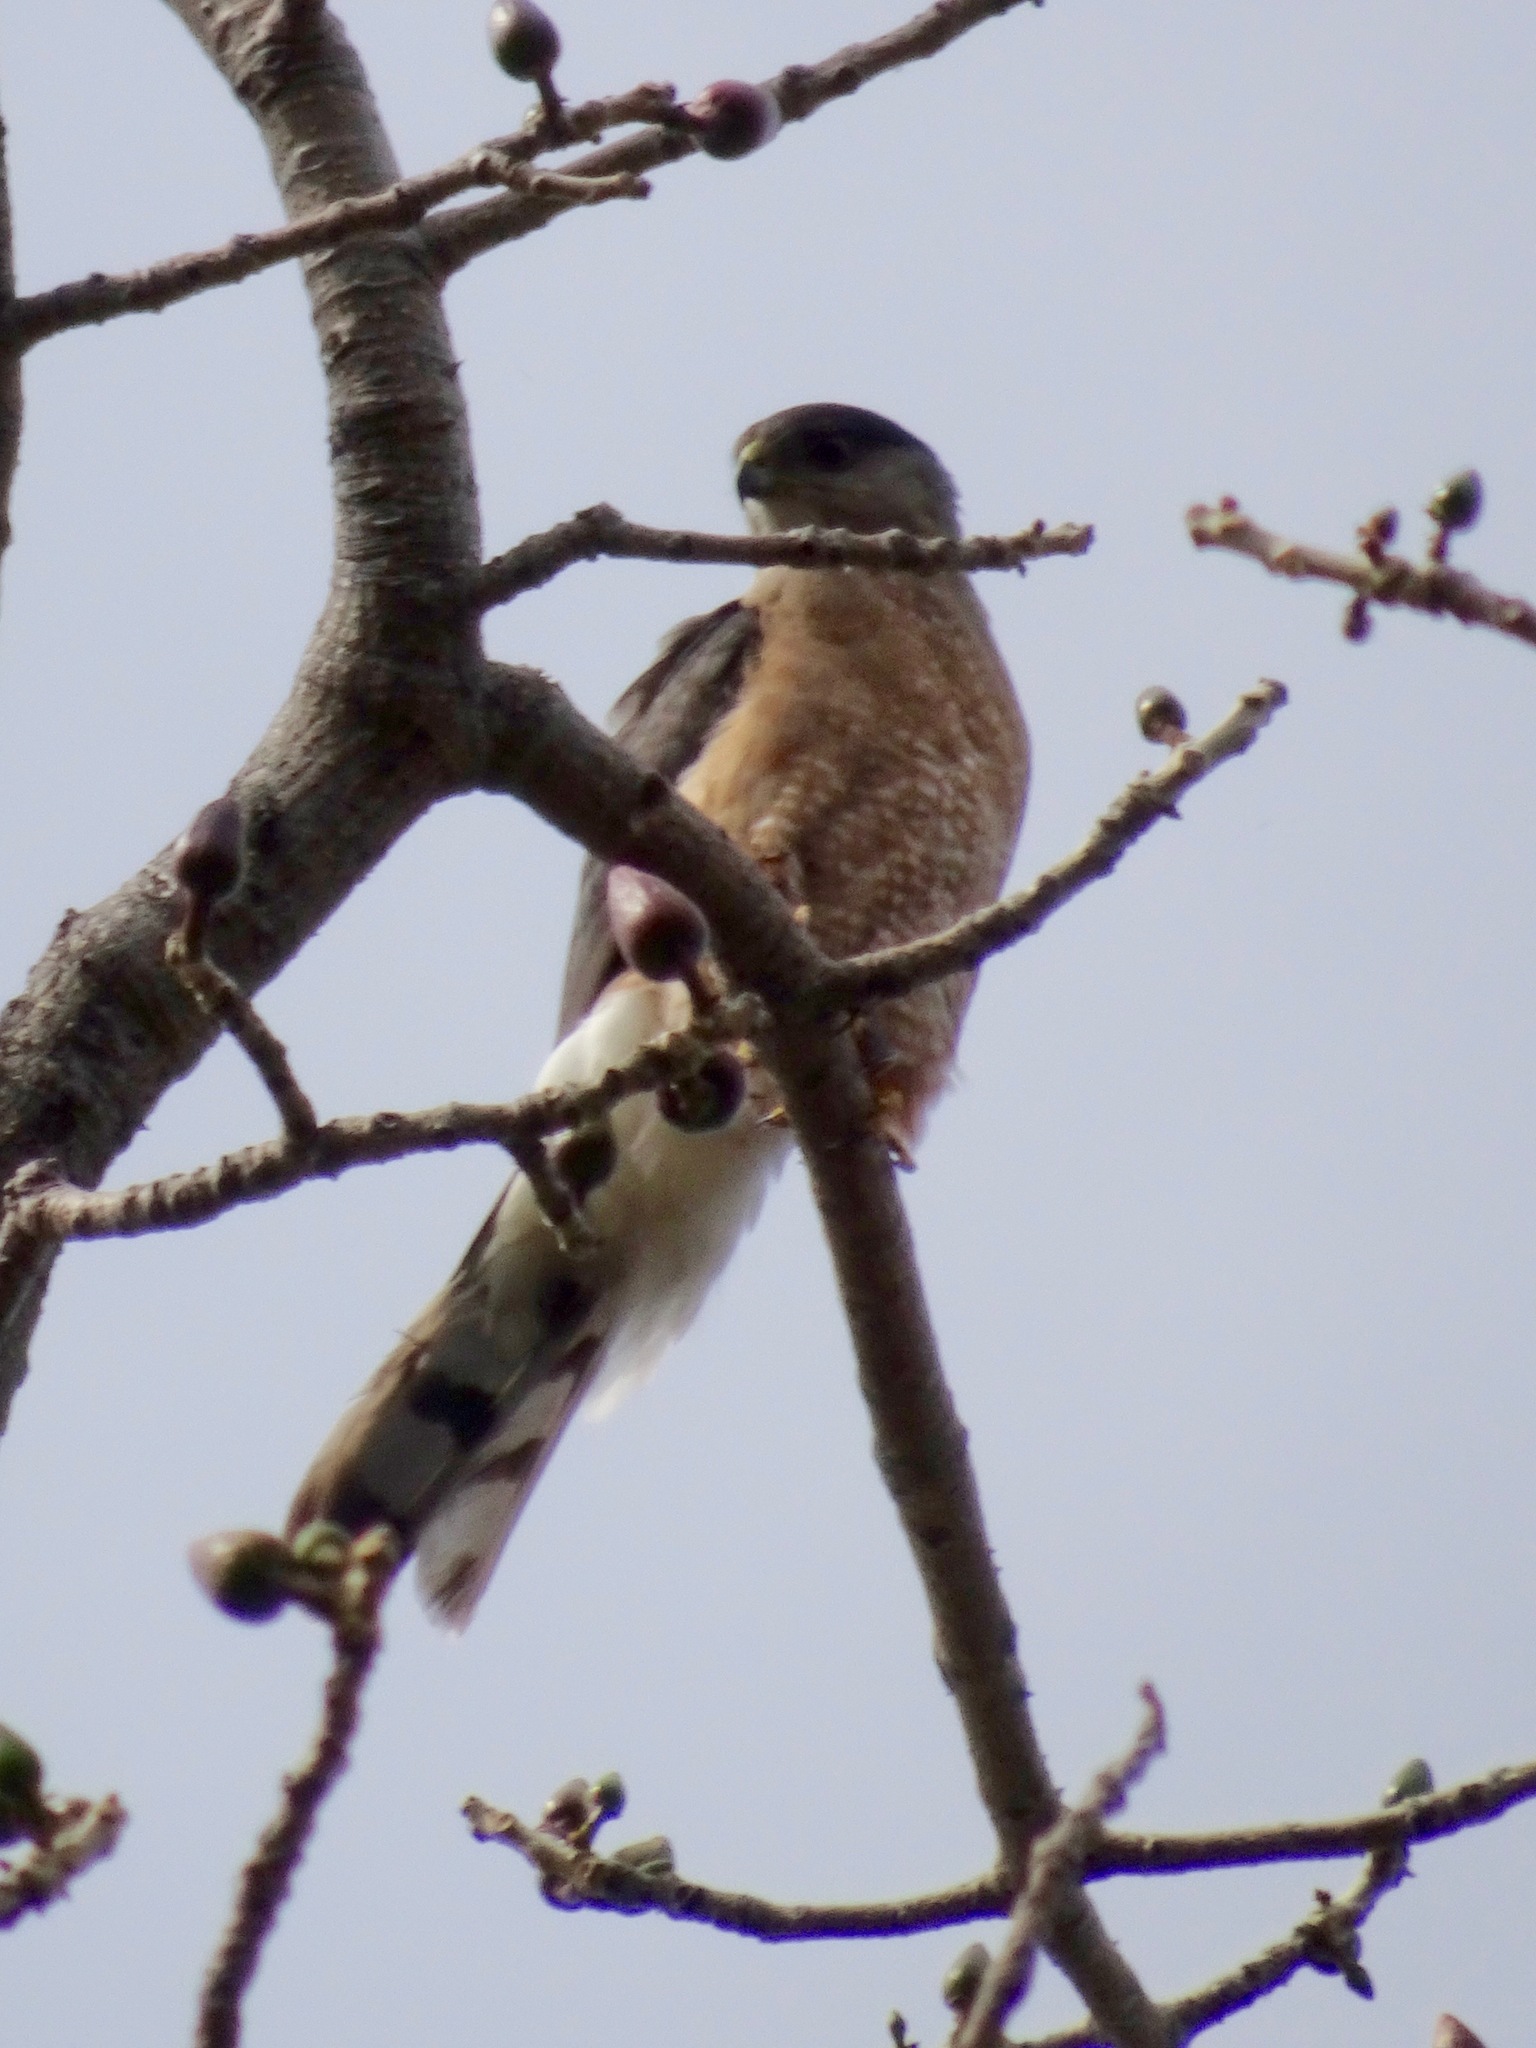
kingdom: Animalia
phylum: Chordata
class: Aves
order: Accipitriformes
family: Accipitridae
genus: Accipiter
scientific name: Accipiter cooperii
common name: Cooper's hawk
